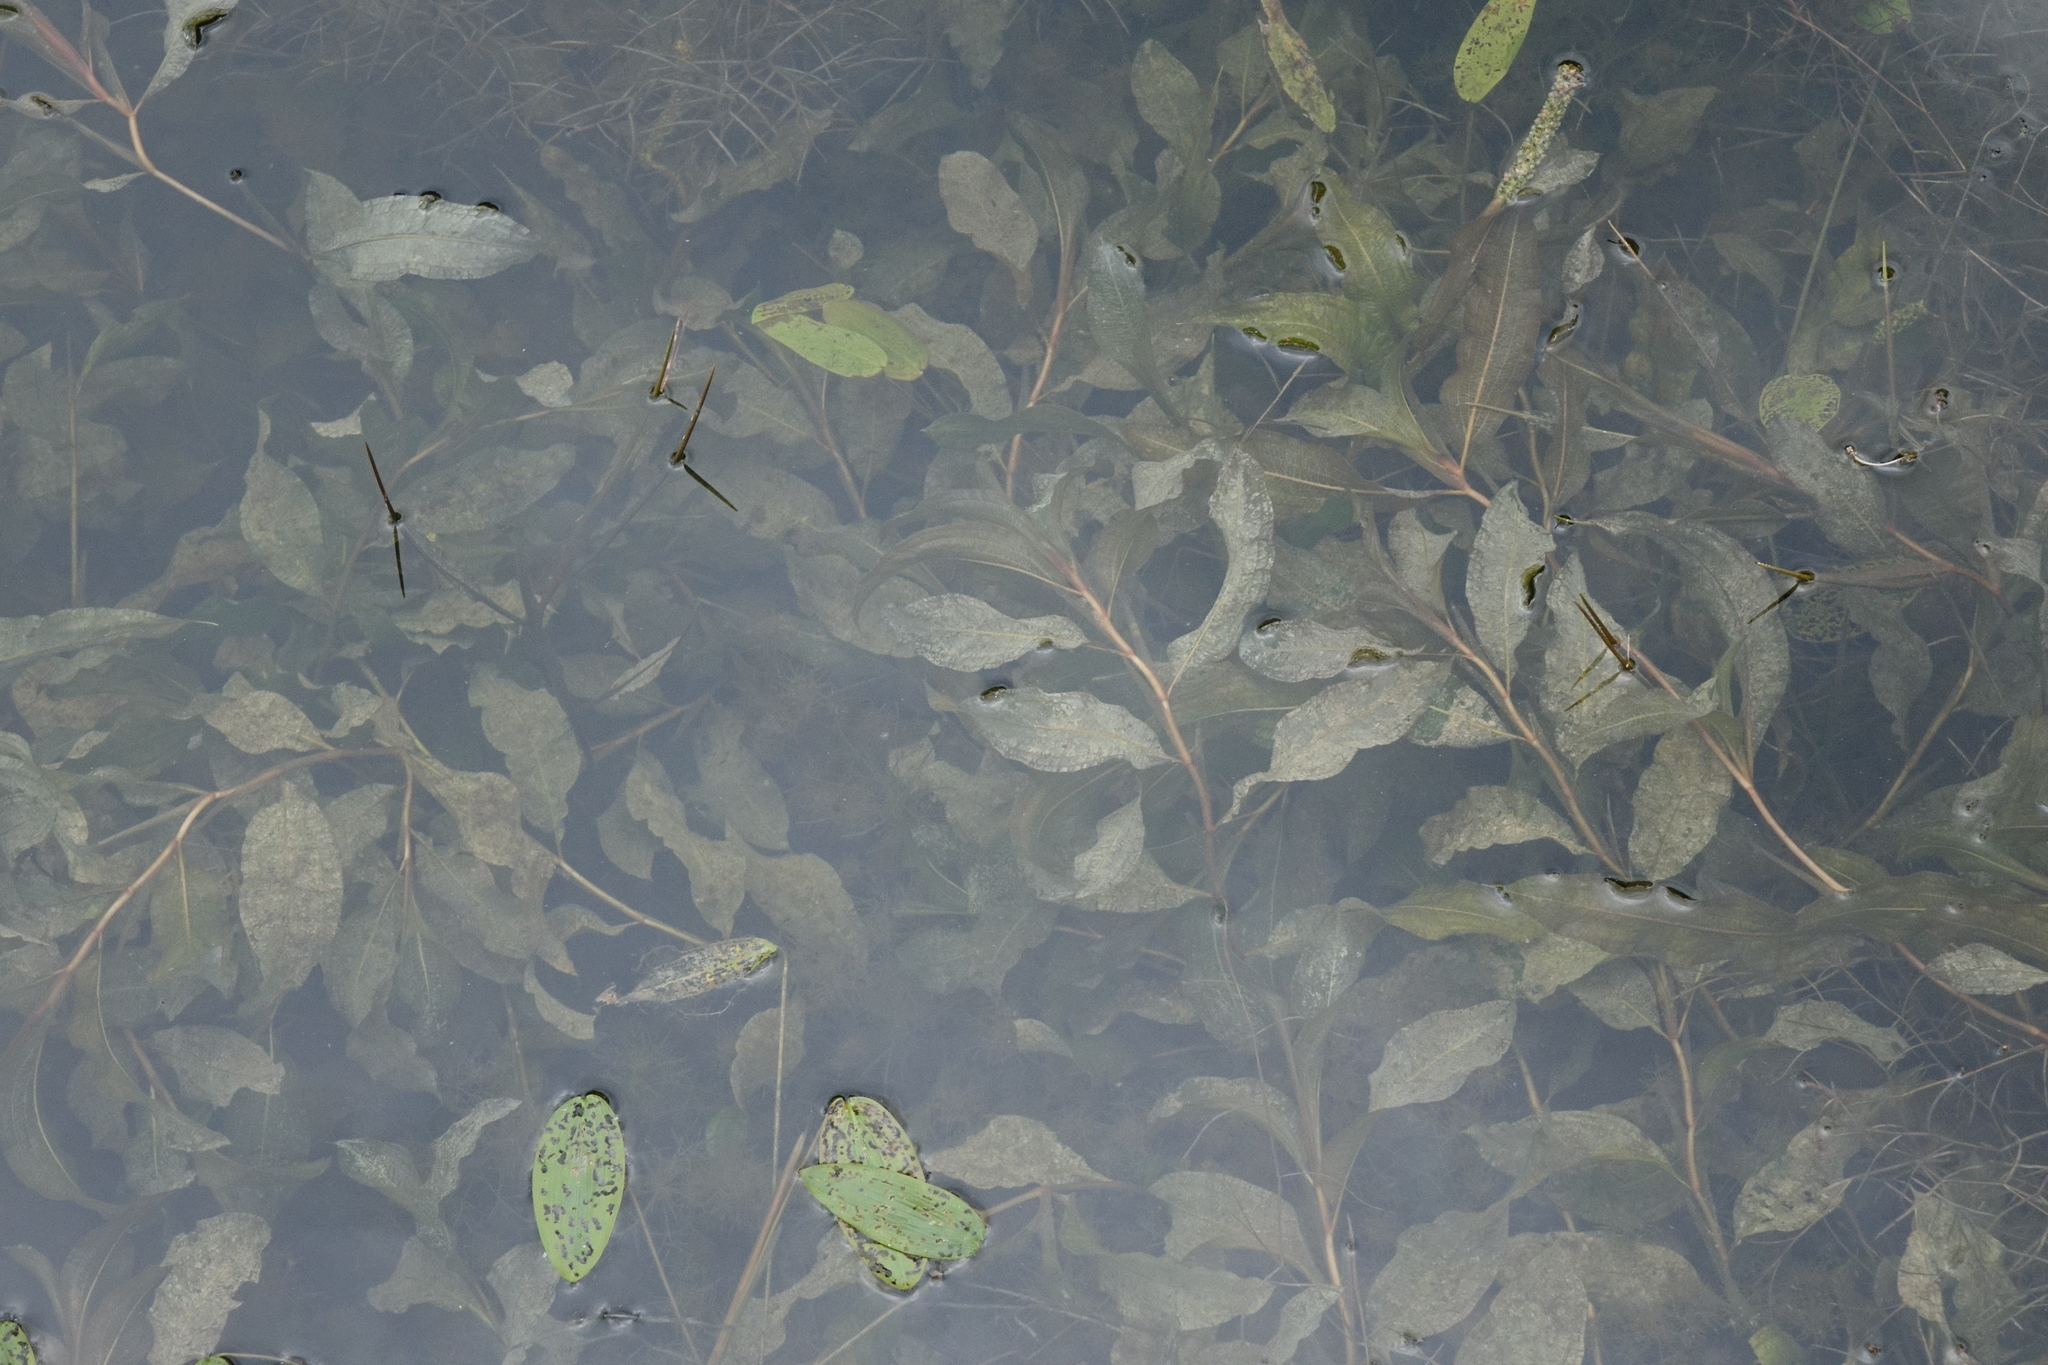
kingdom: Plantae
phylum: Tracheophyta
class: Liliopsida
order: Alismatales
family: Potamogetonaceae
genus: Potamogeton
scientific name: Potamogeton lucens
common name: Shining pondweed
